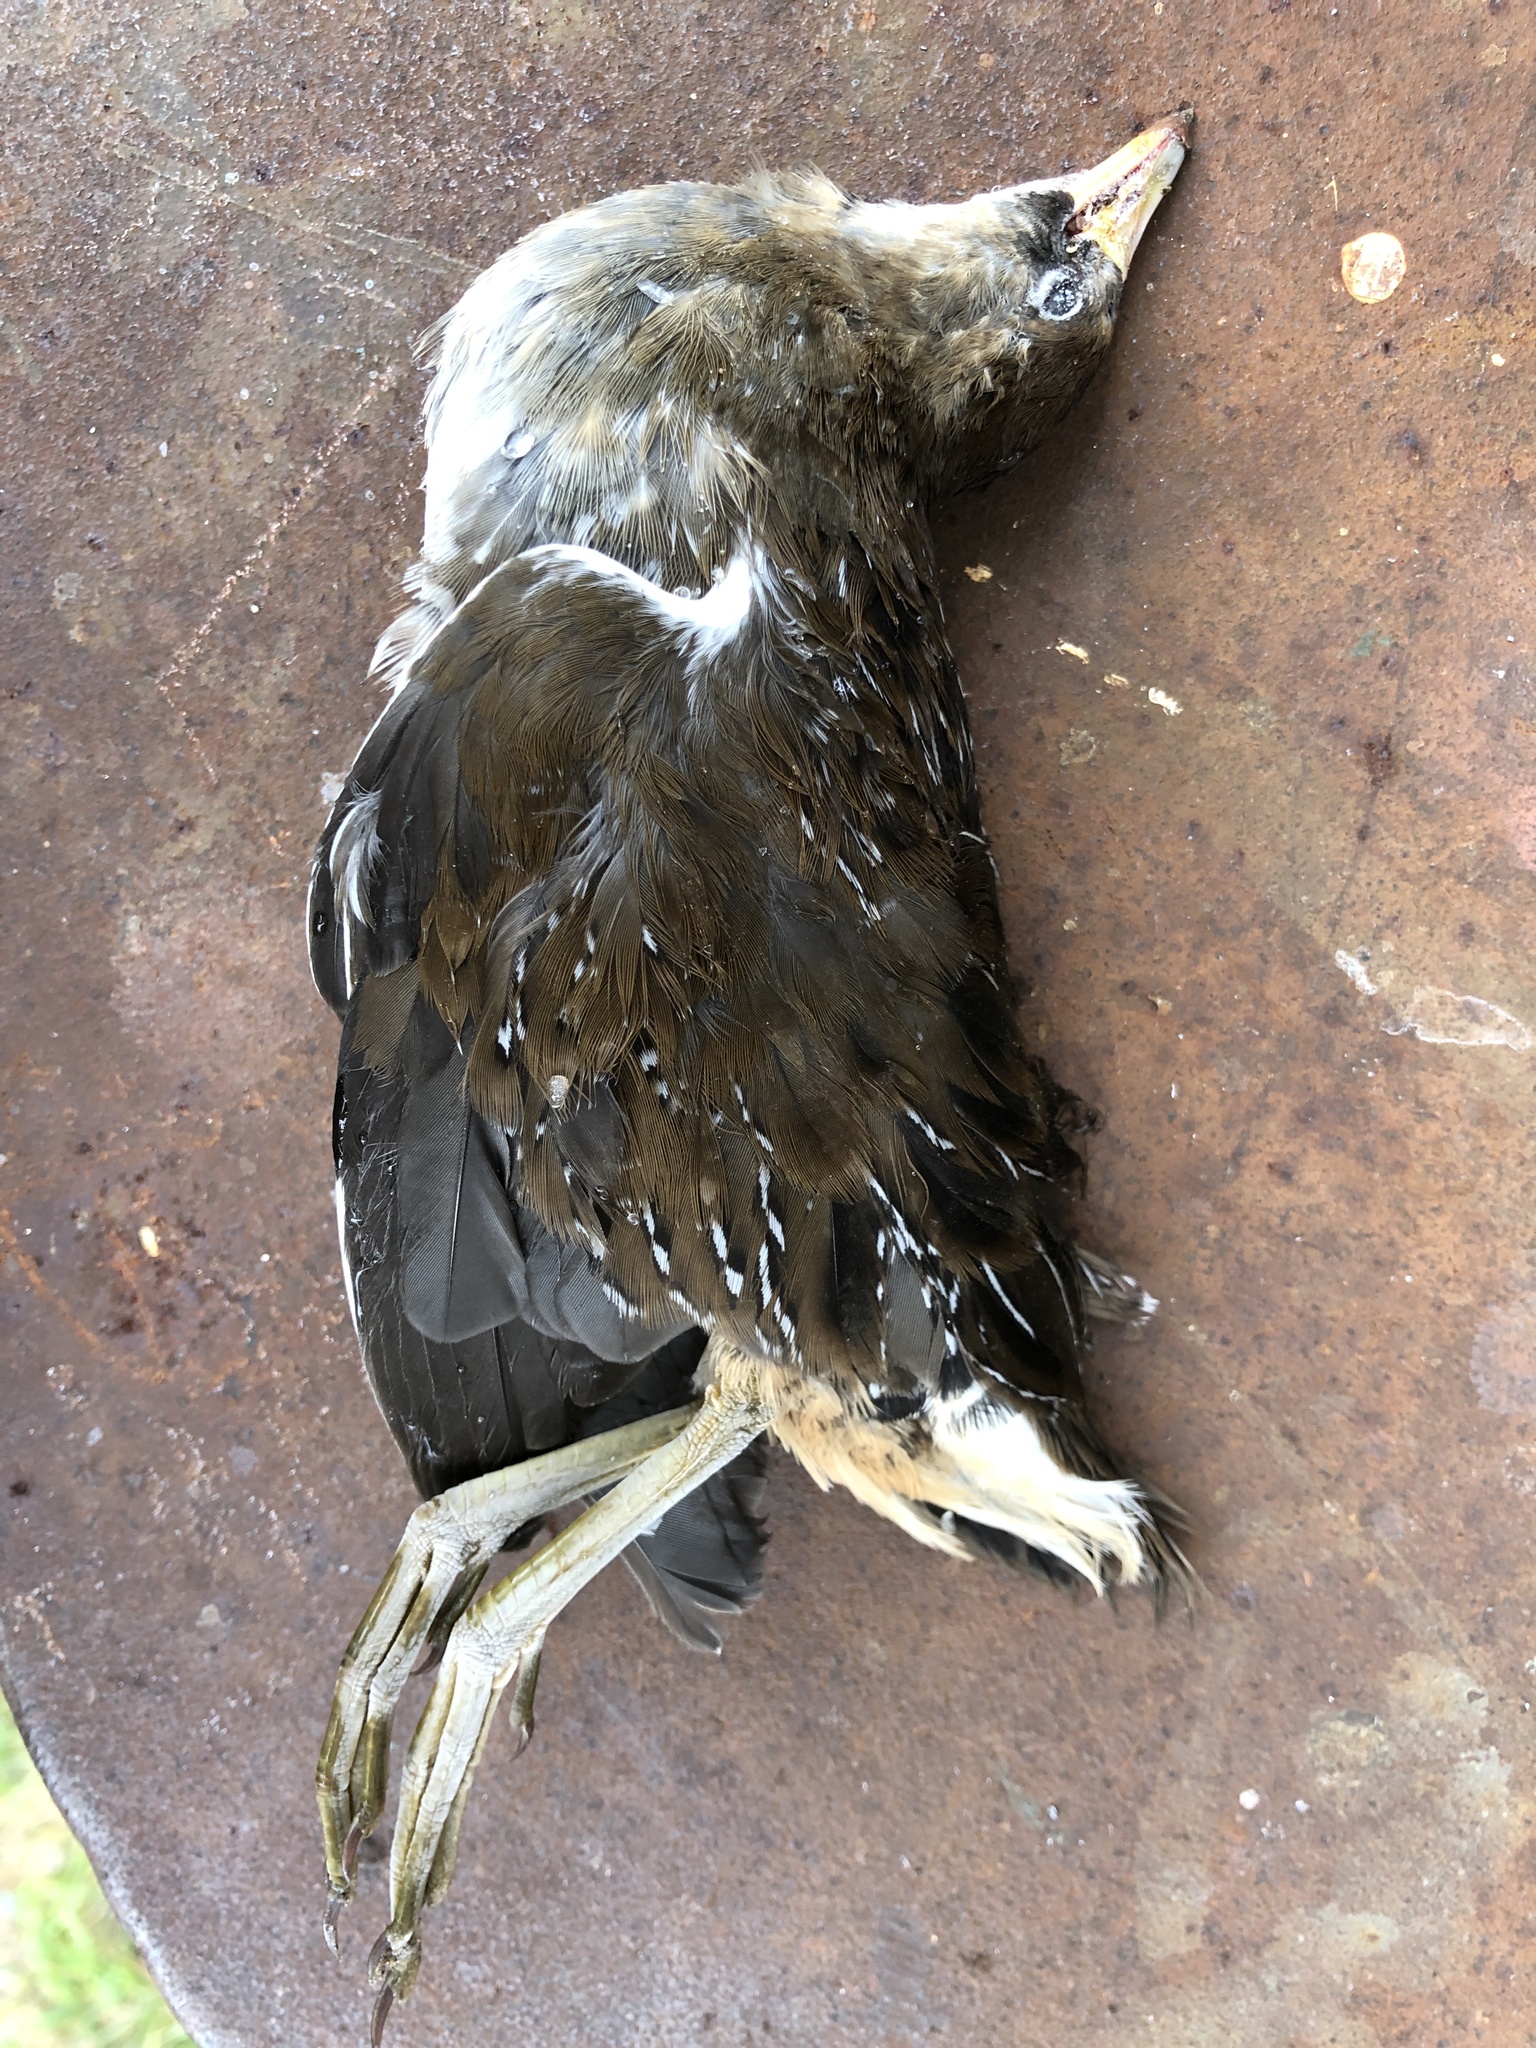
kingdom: Animalia
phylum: Chordata
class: Aves
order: Gruiformes
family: Rallidae
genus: Porzana
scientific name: Porzana carolina
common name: Sora
